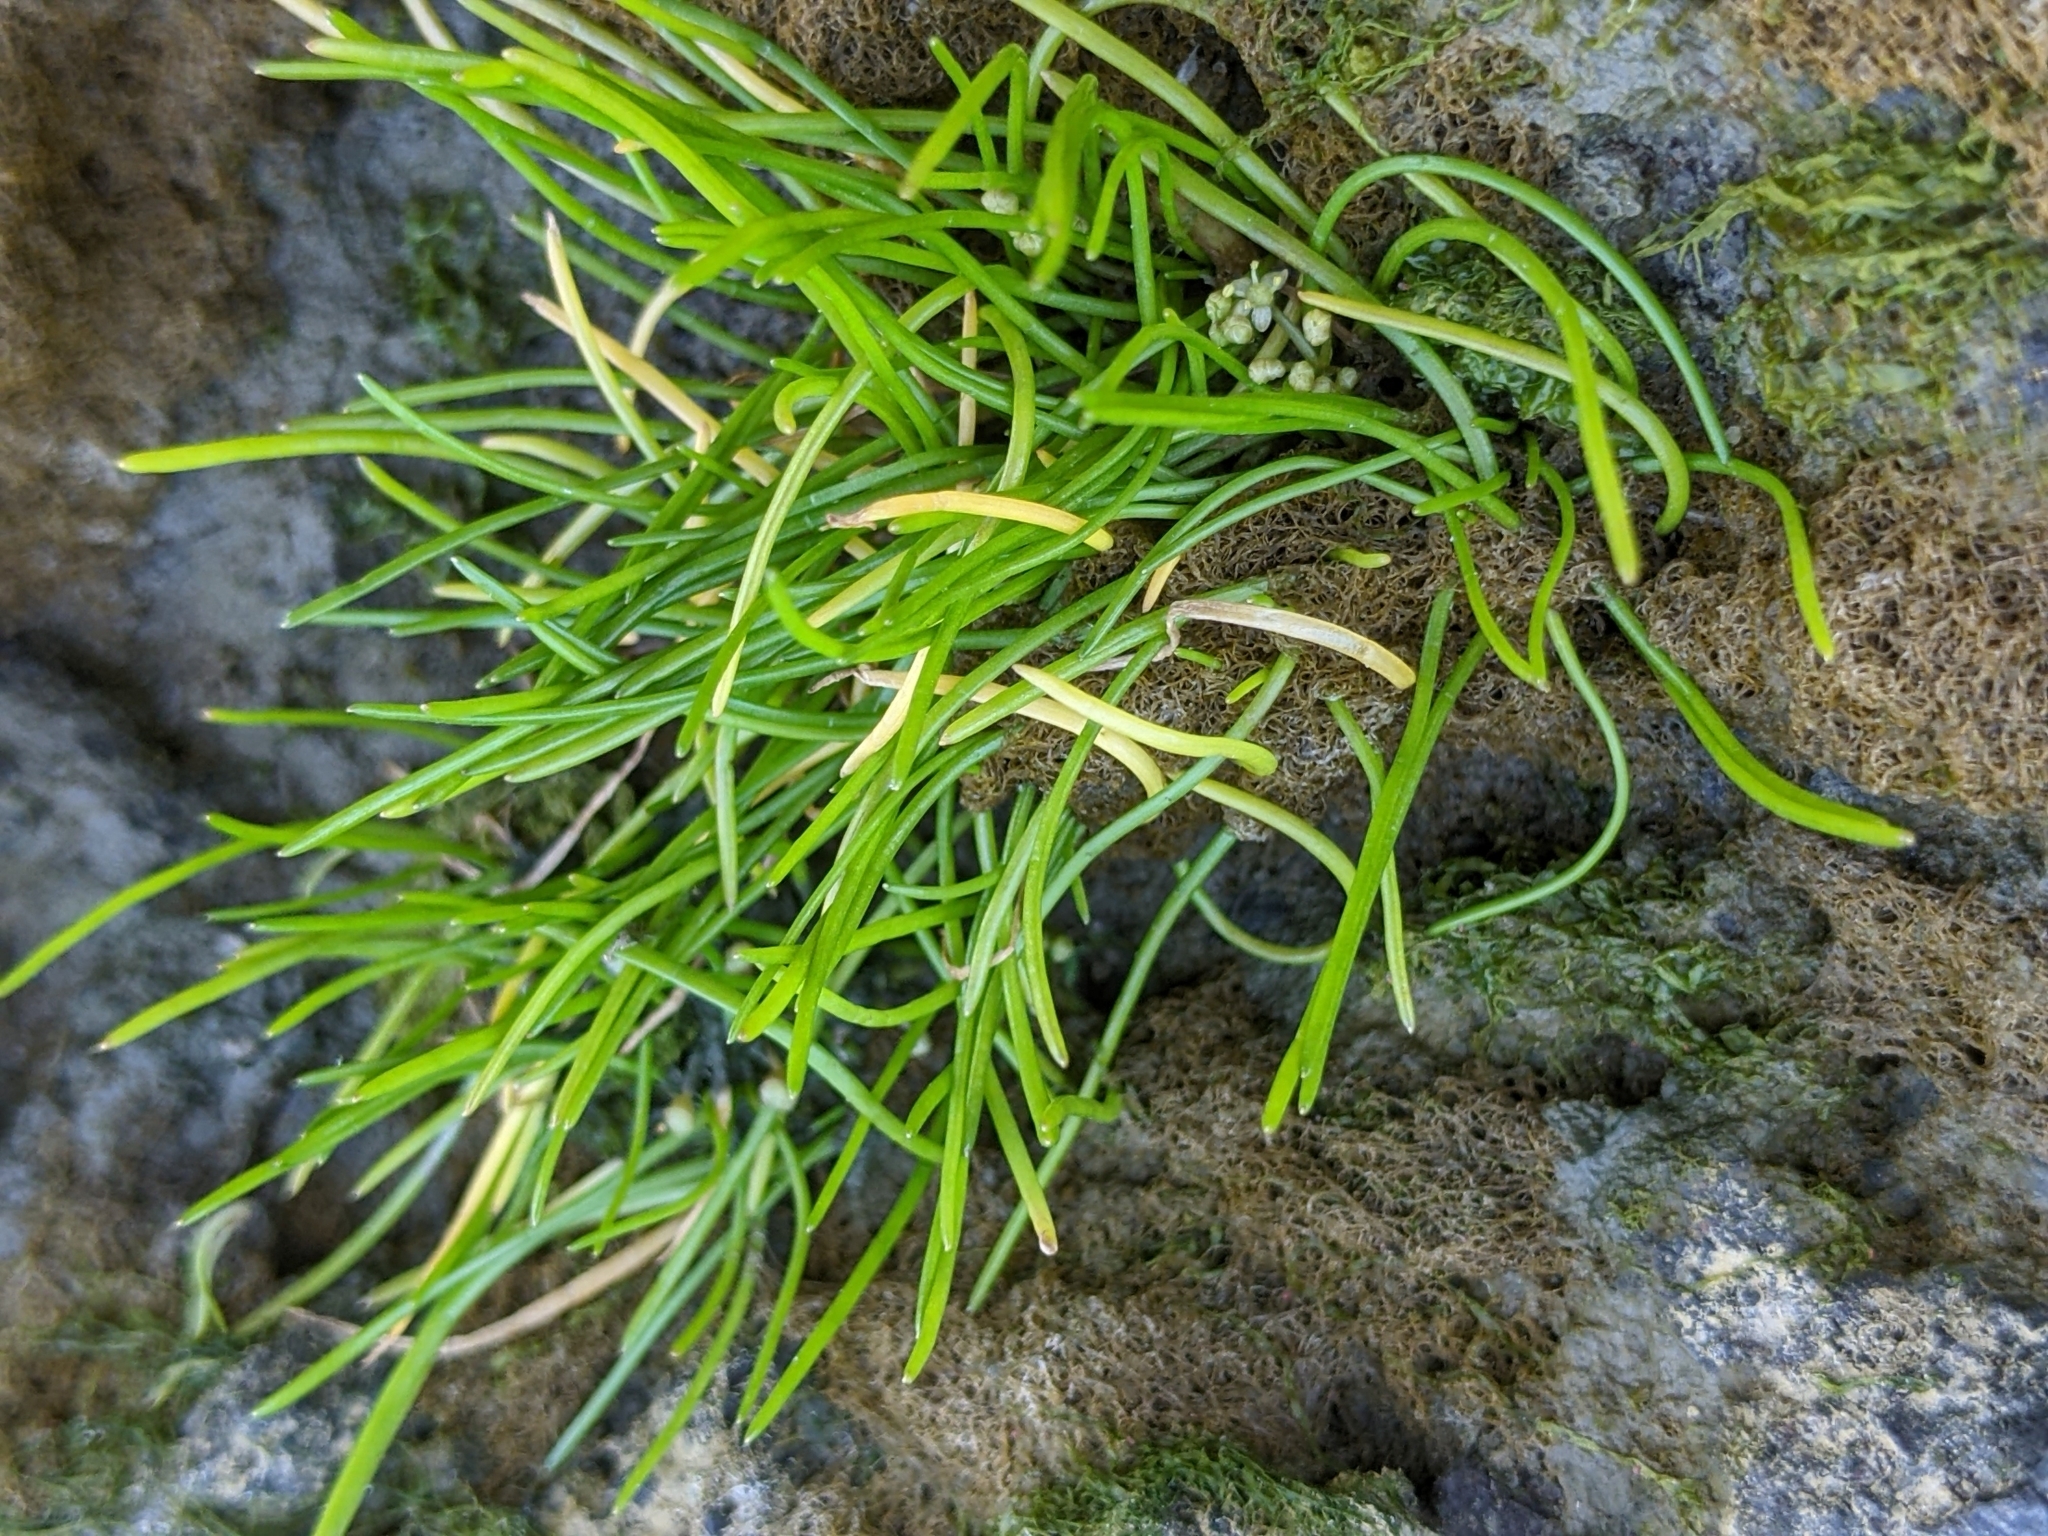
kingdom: Plantae
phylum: Tracheophyta
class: Magnoliopsida
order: Apiales
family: Apiaceae
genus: Lilaeopsis
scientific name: Lilaeopsis occidentalis
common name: Western grasswort
